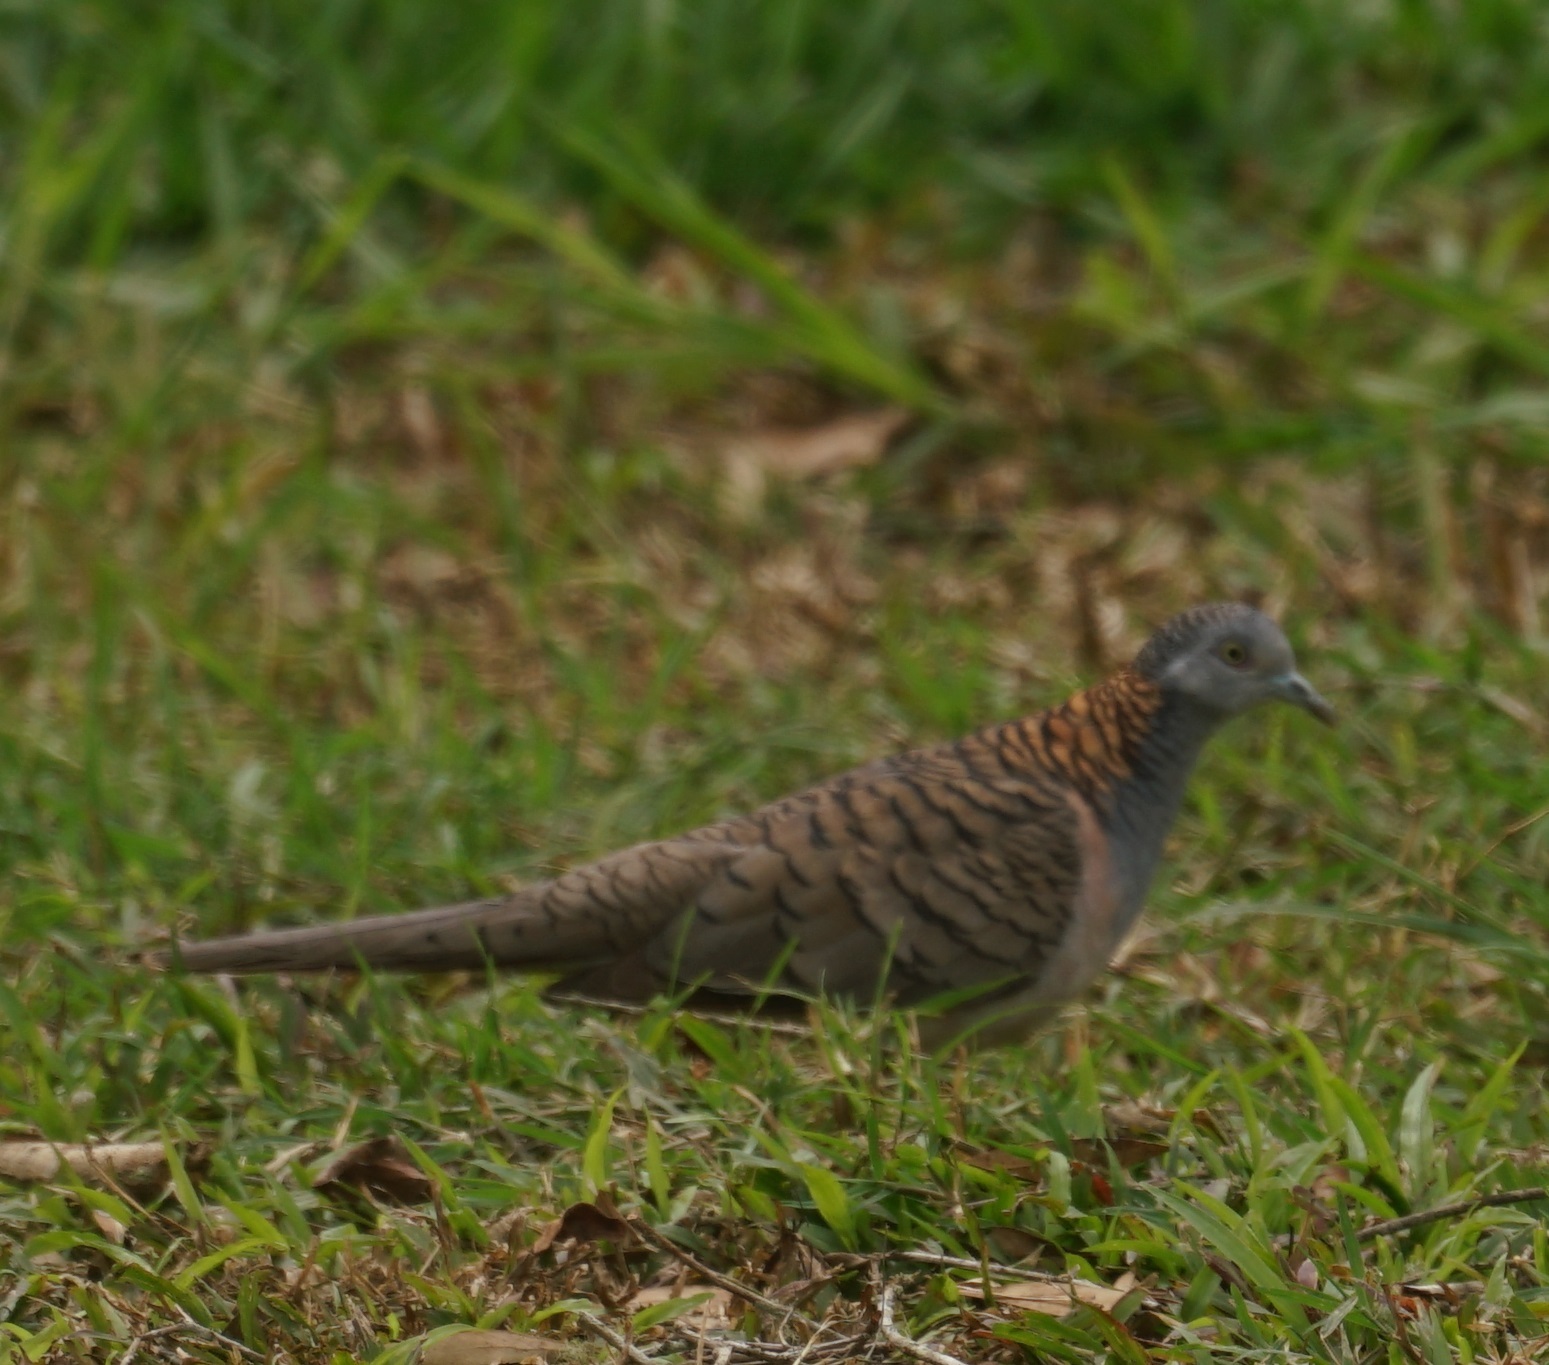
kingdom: Animalia
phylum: Chordata
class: Aves
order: Columbiformes
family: Columbidae
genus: Geopelia
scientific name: Geopelia humeralis
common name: Bar-shouldered dove
